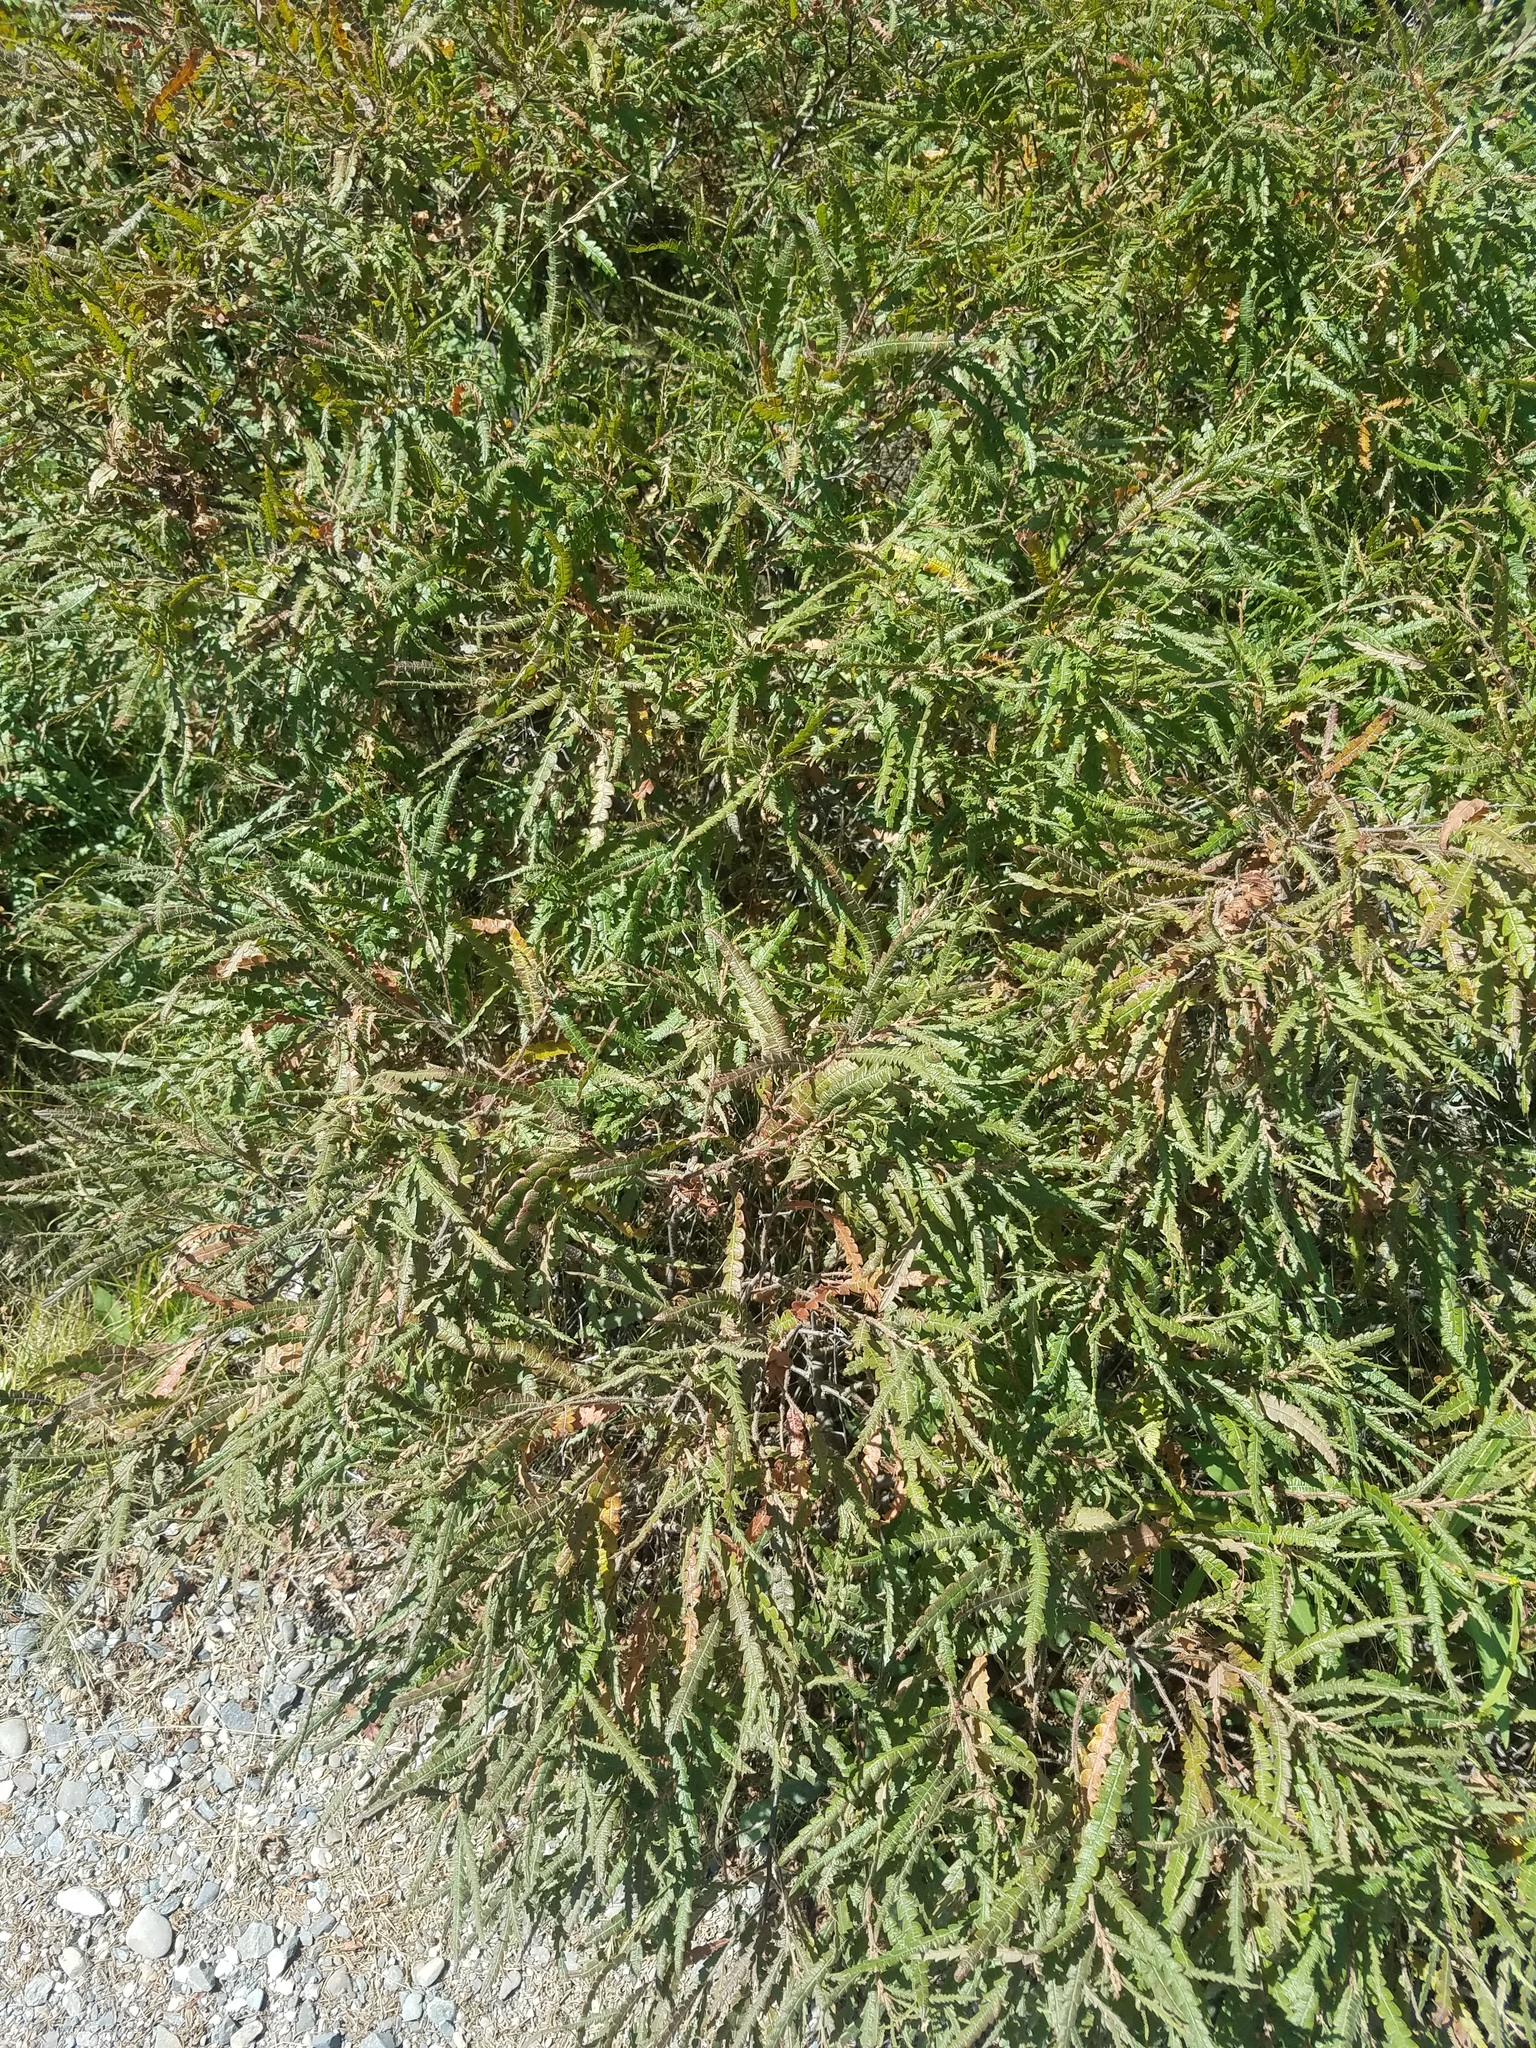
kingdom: Plantae
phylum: Tracheophyta
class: Magnoliopsida
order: Fagales
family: Myricaceae
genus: Comptonia
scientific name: Comptonia peregrina
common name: Sweet-fern
